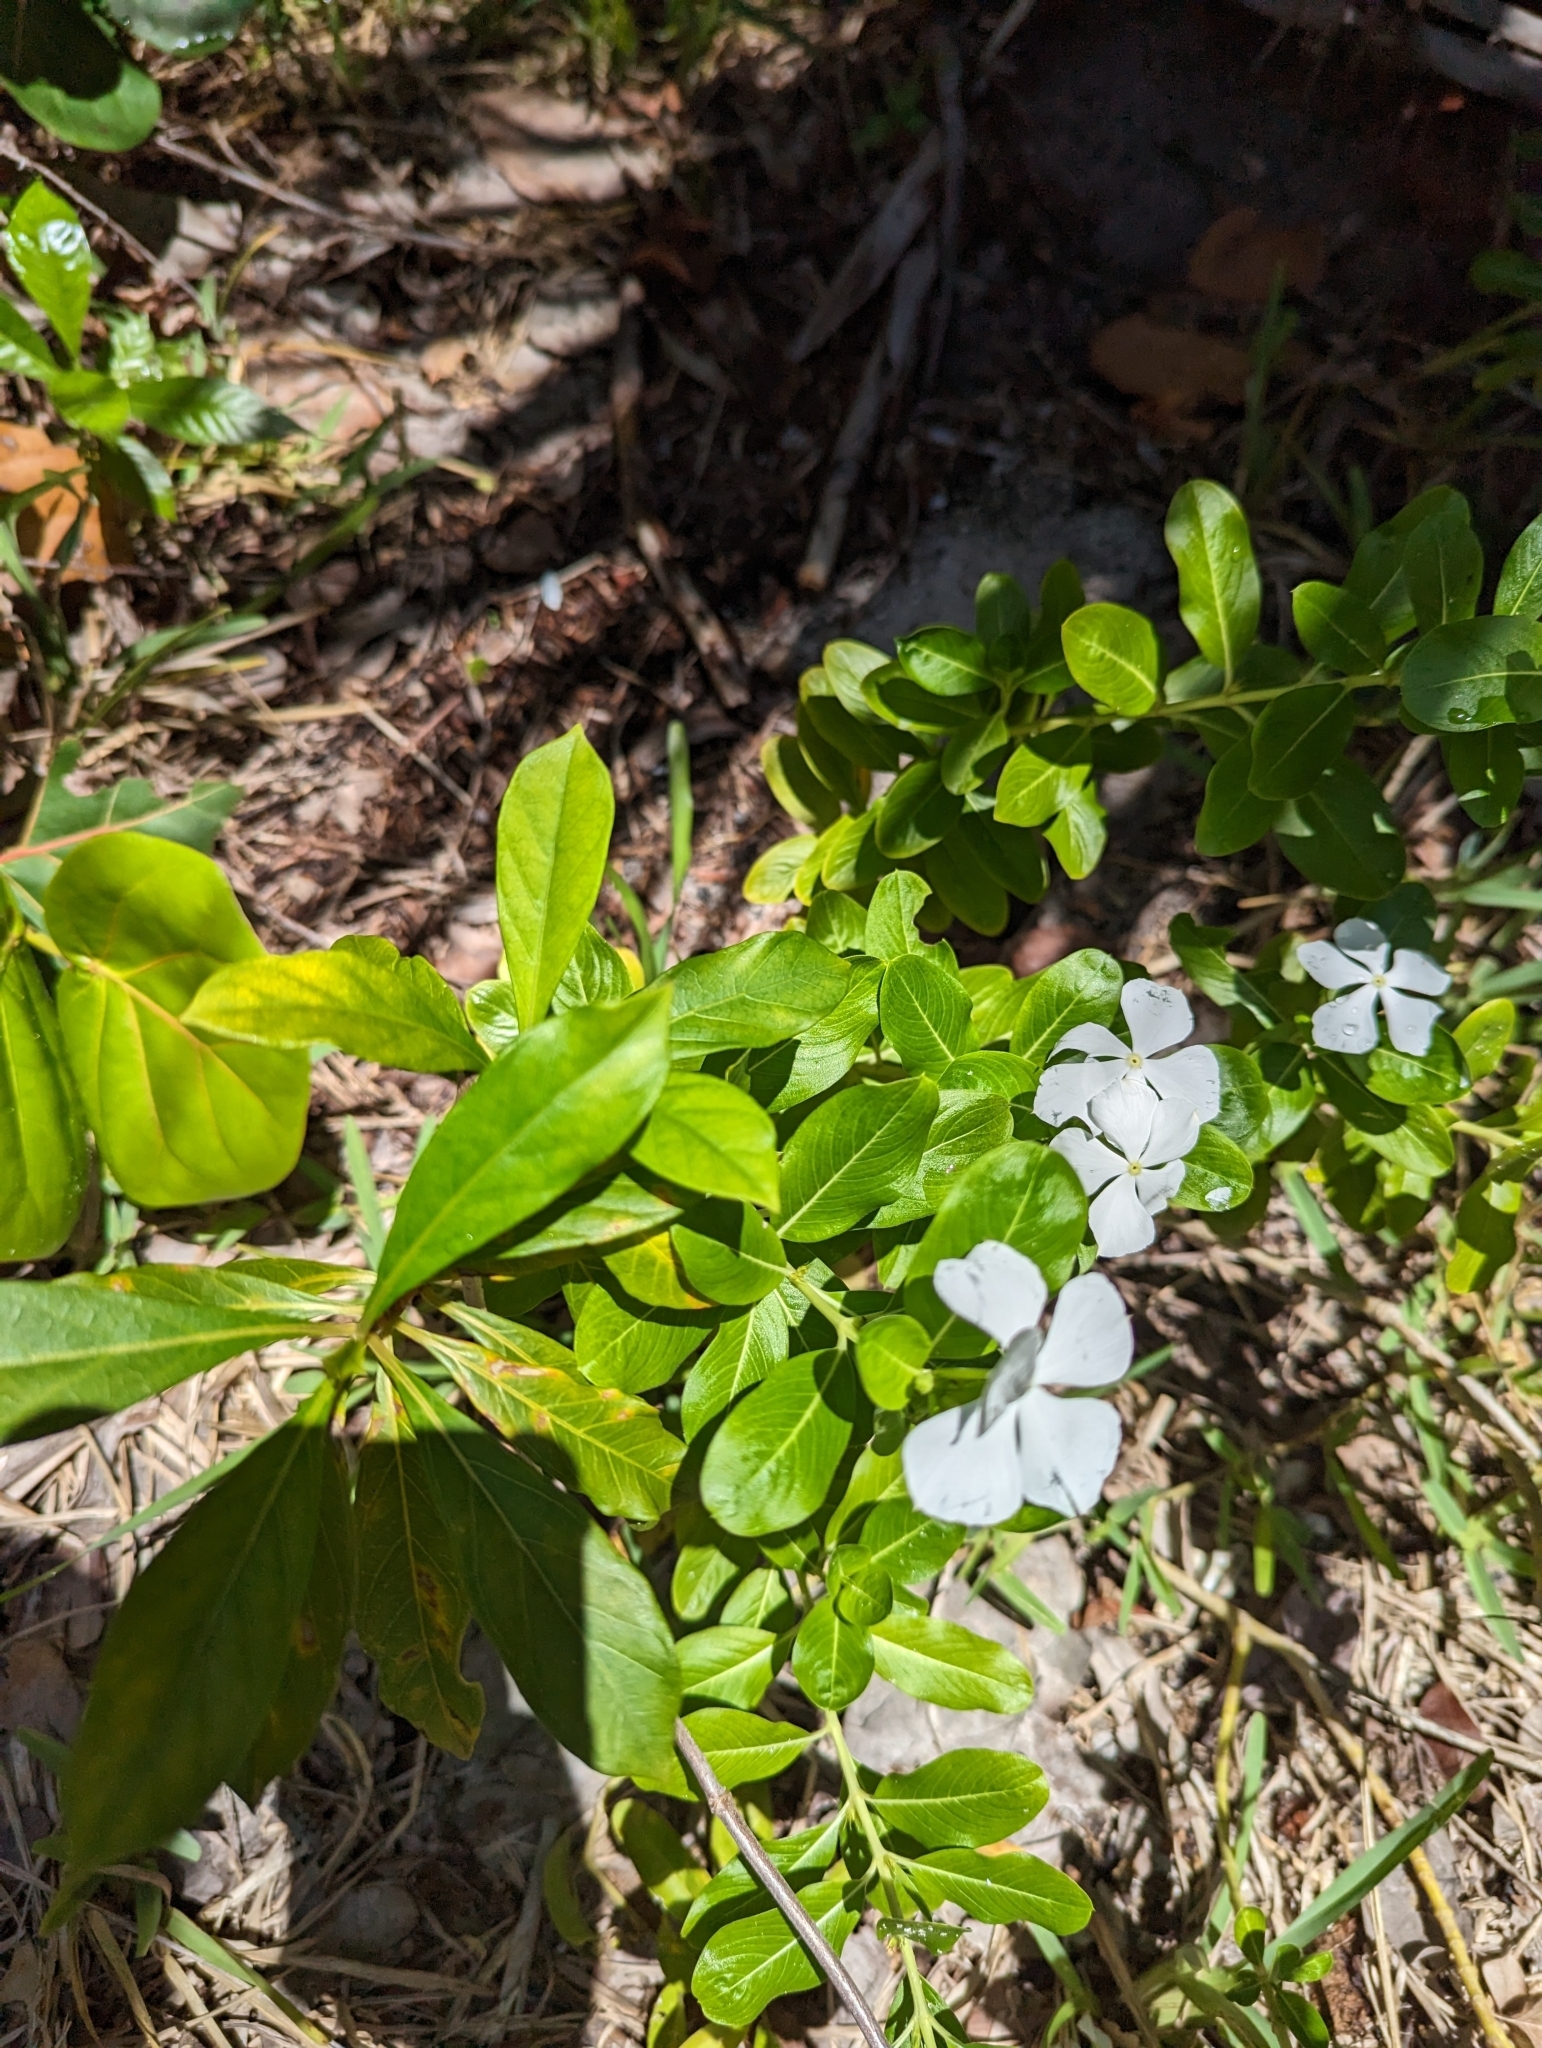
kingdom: Plantae
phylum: Tracheophyta
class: Magnoliopsida
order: Gentianales
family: Apocynaceae
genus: Catharanthus
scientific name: Catharanthus roseus
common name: Madagascar periwinkle
